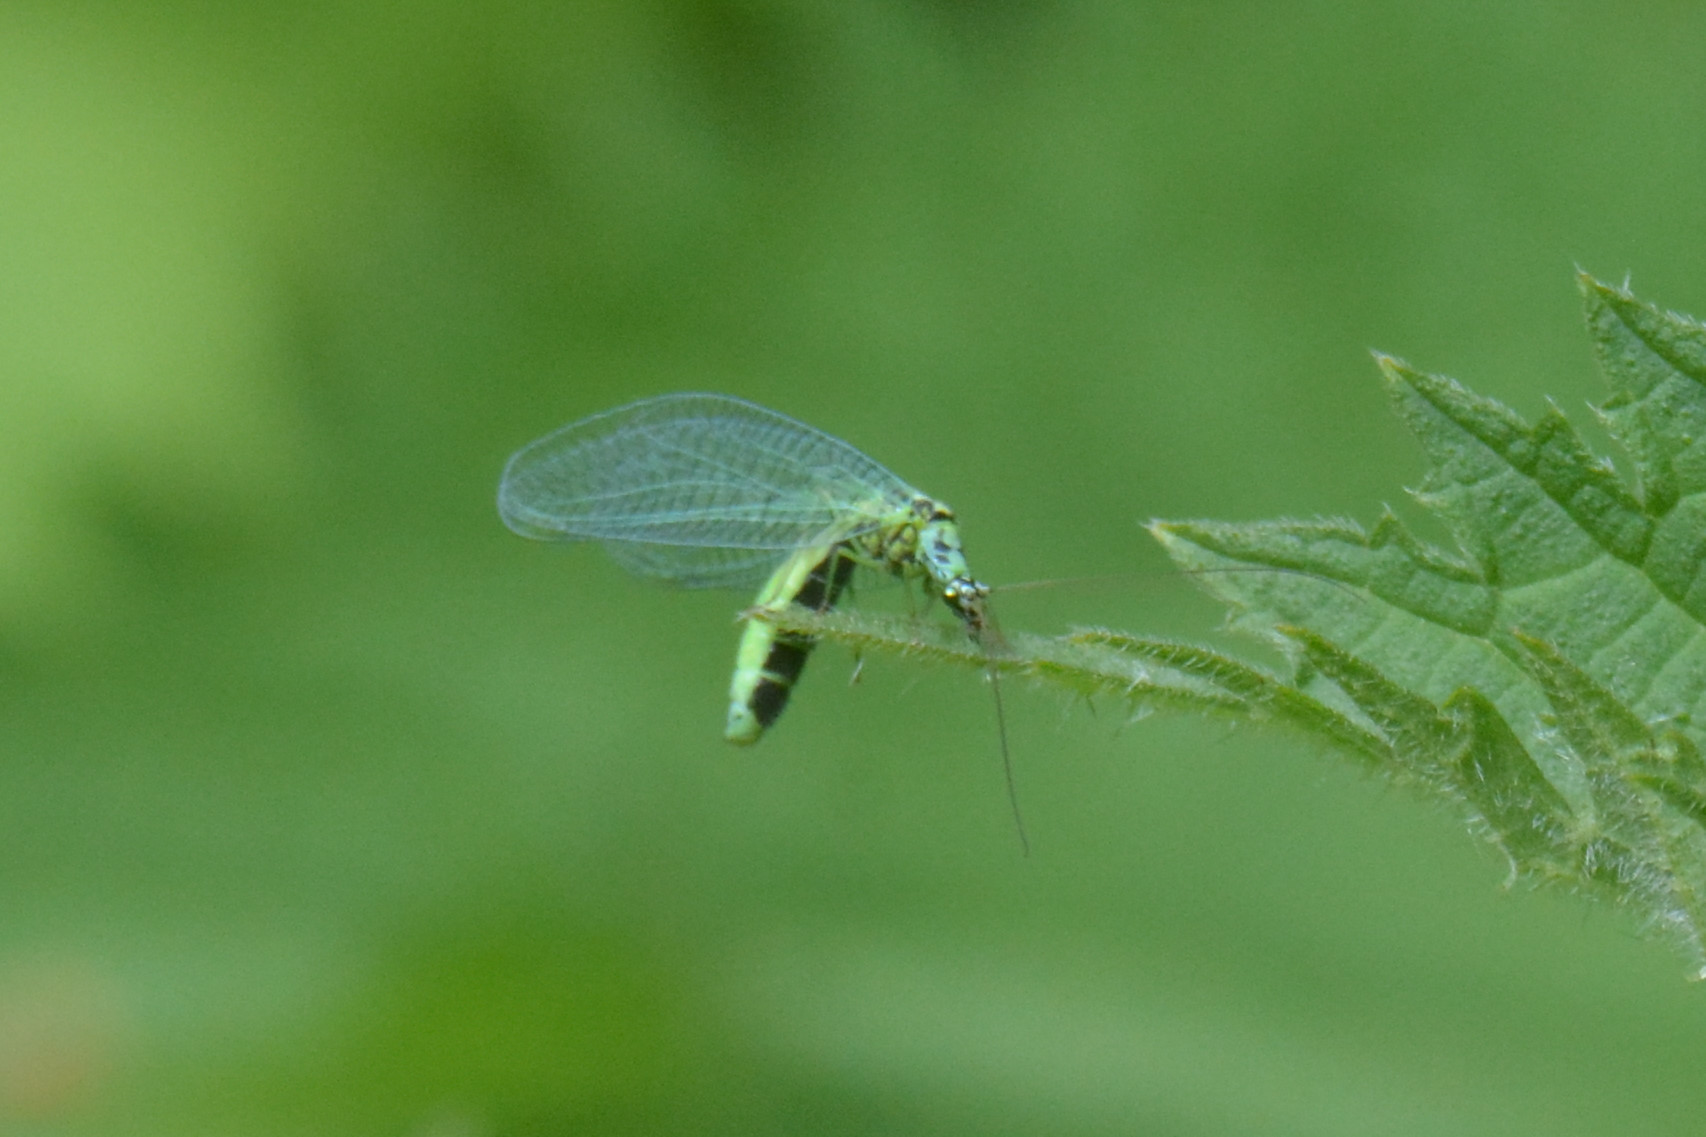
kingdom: Animalia
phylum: Arthropoda
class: Insecta
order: Neuroptera
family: Chrysopidae
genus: Chrysopa
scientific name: Chrysopa perla
